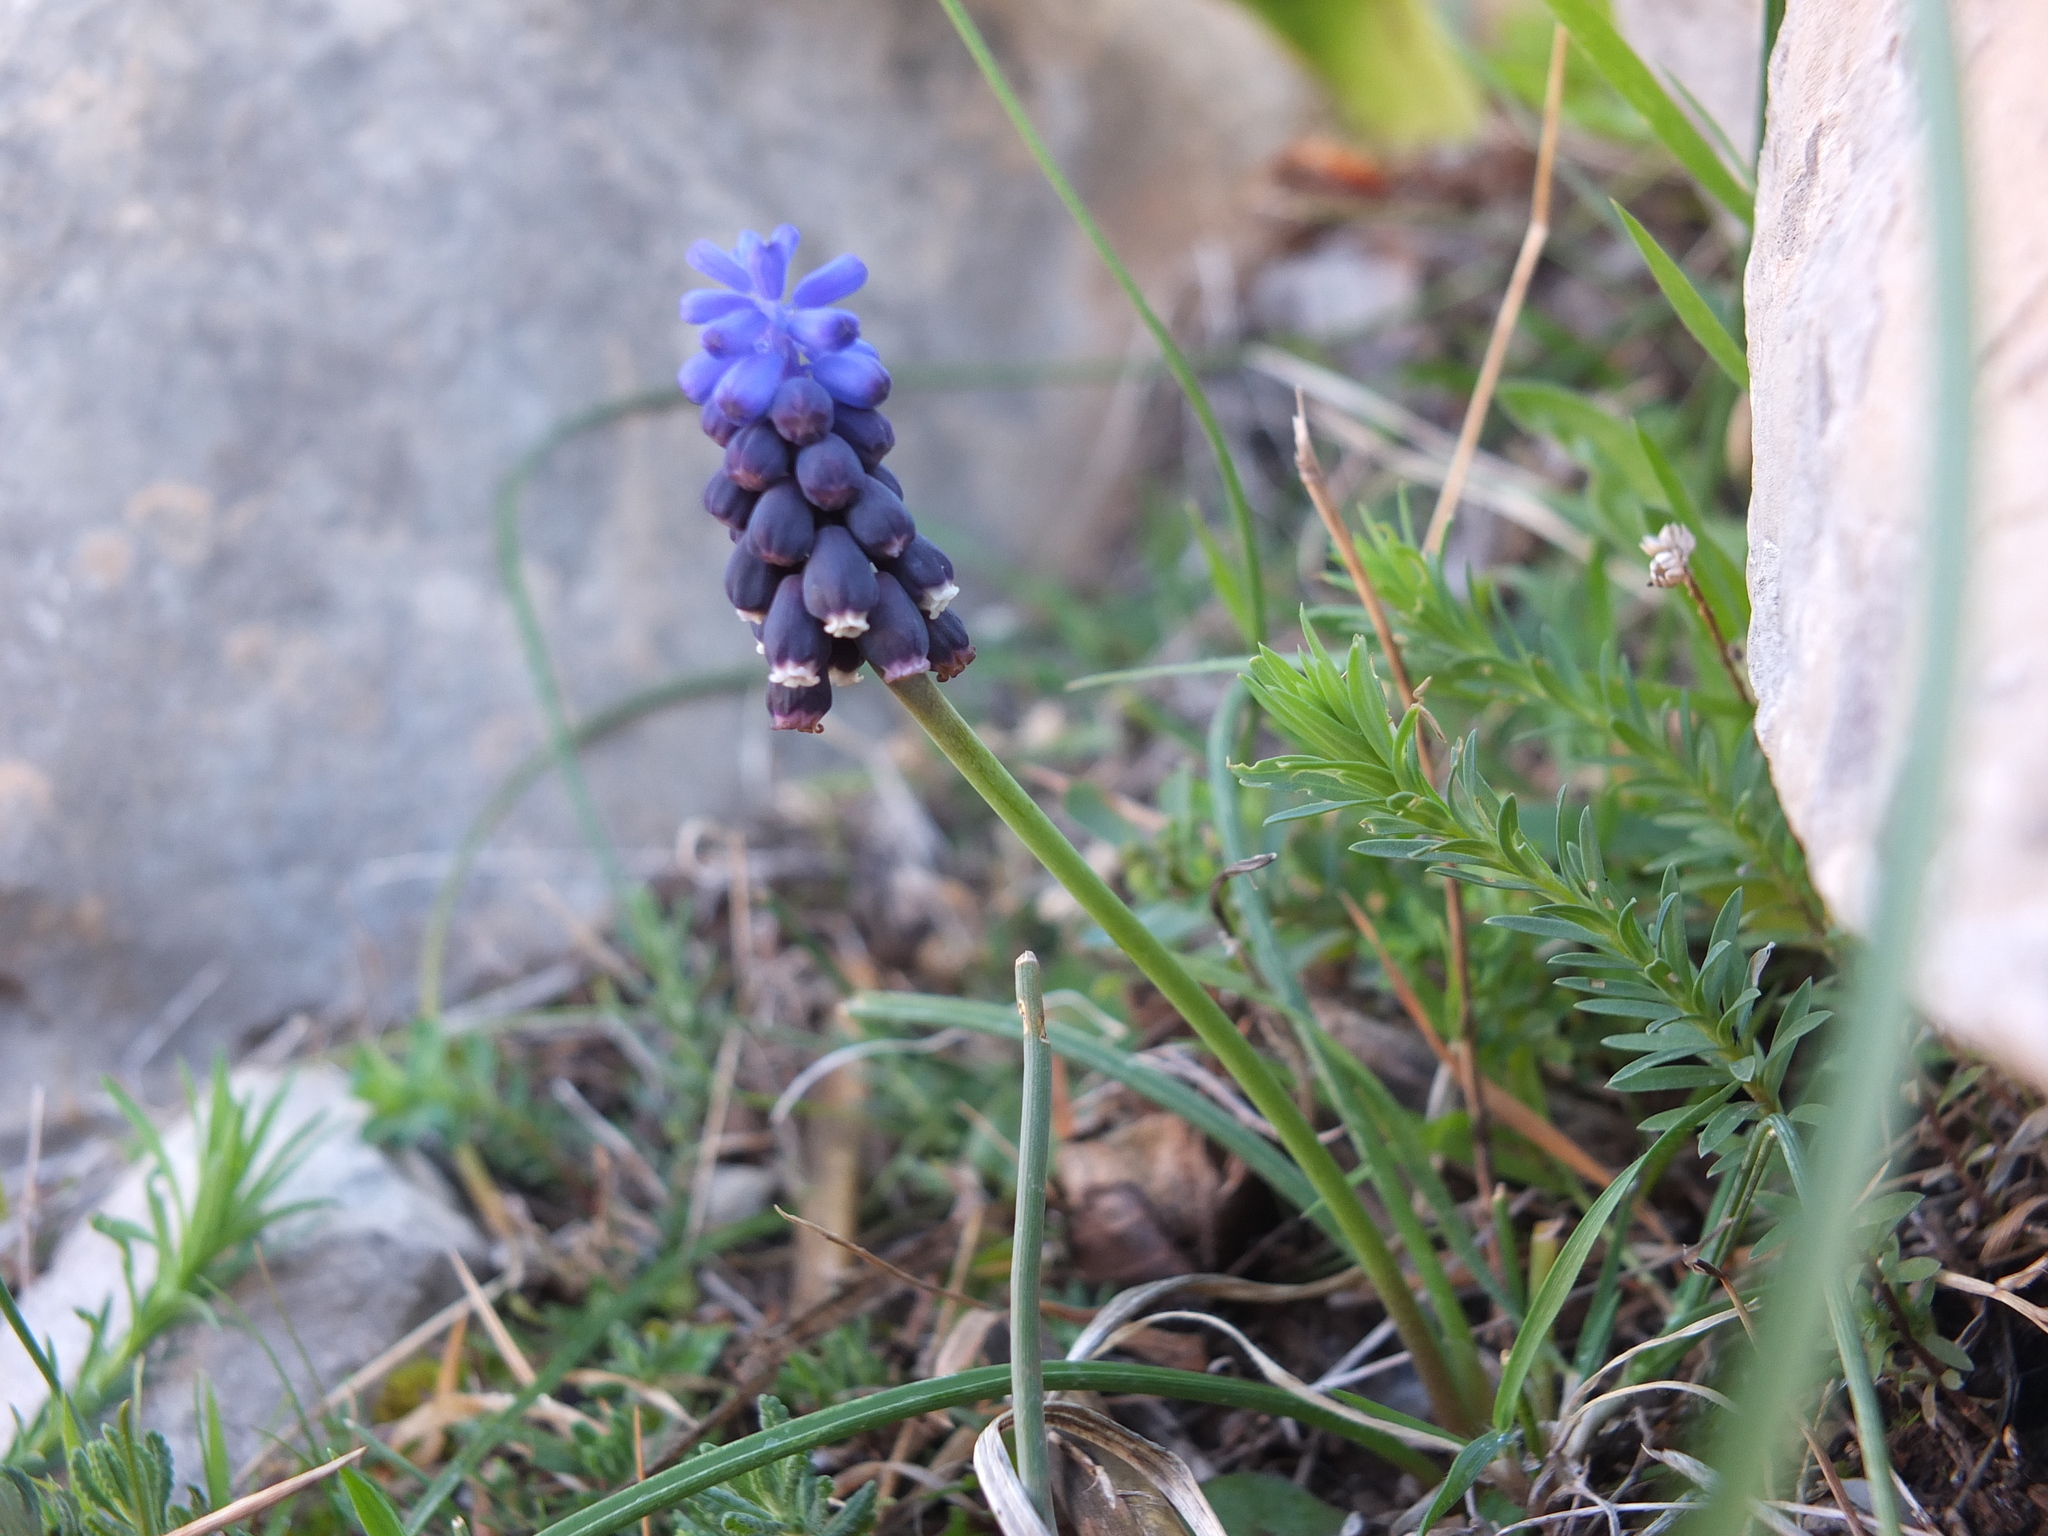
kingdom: Plantae
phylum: Tracheophyta
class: Liliopsida
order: Asparagales
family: Asparagaceae
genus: Muscari
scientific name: Muscari neglectum
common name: Grape-hyacinth
